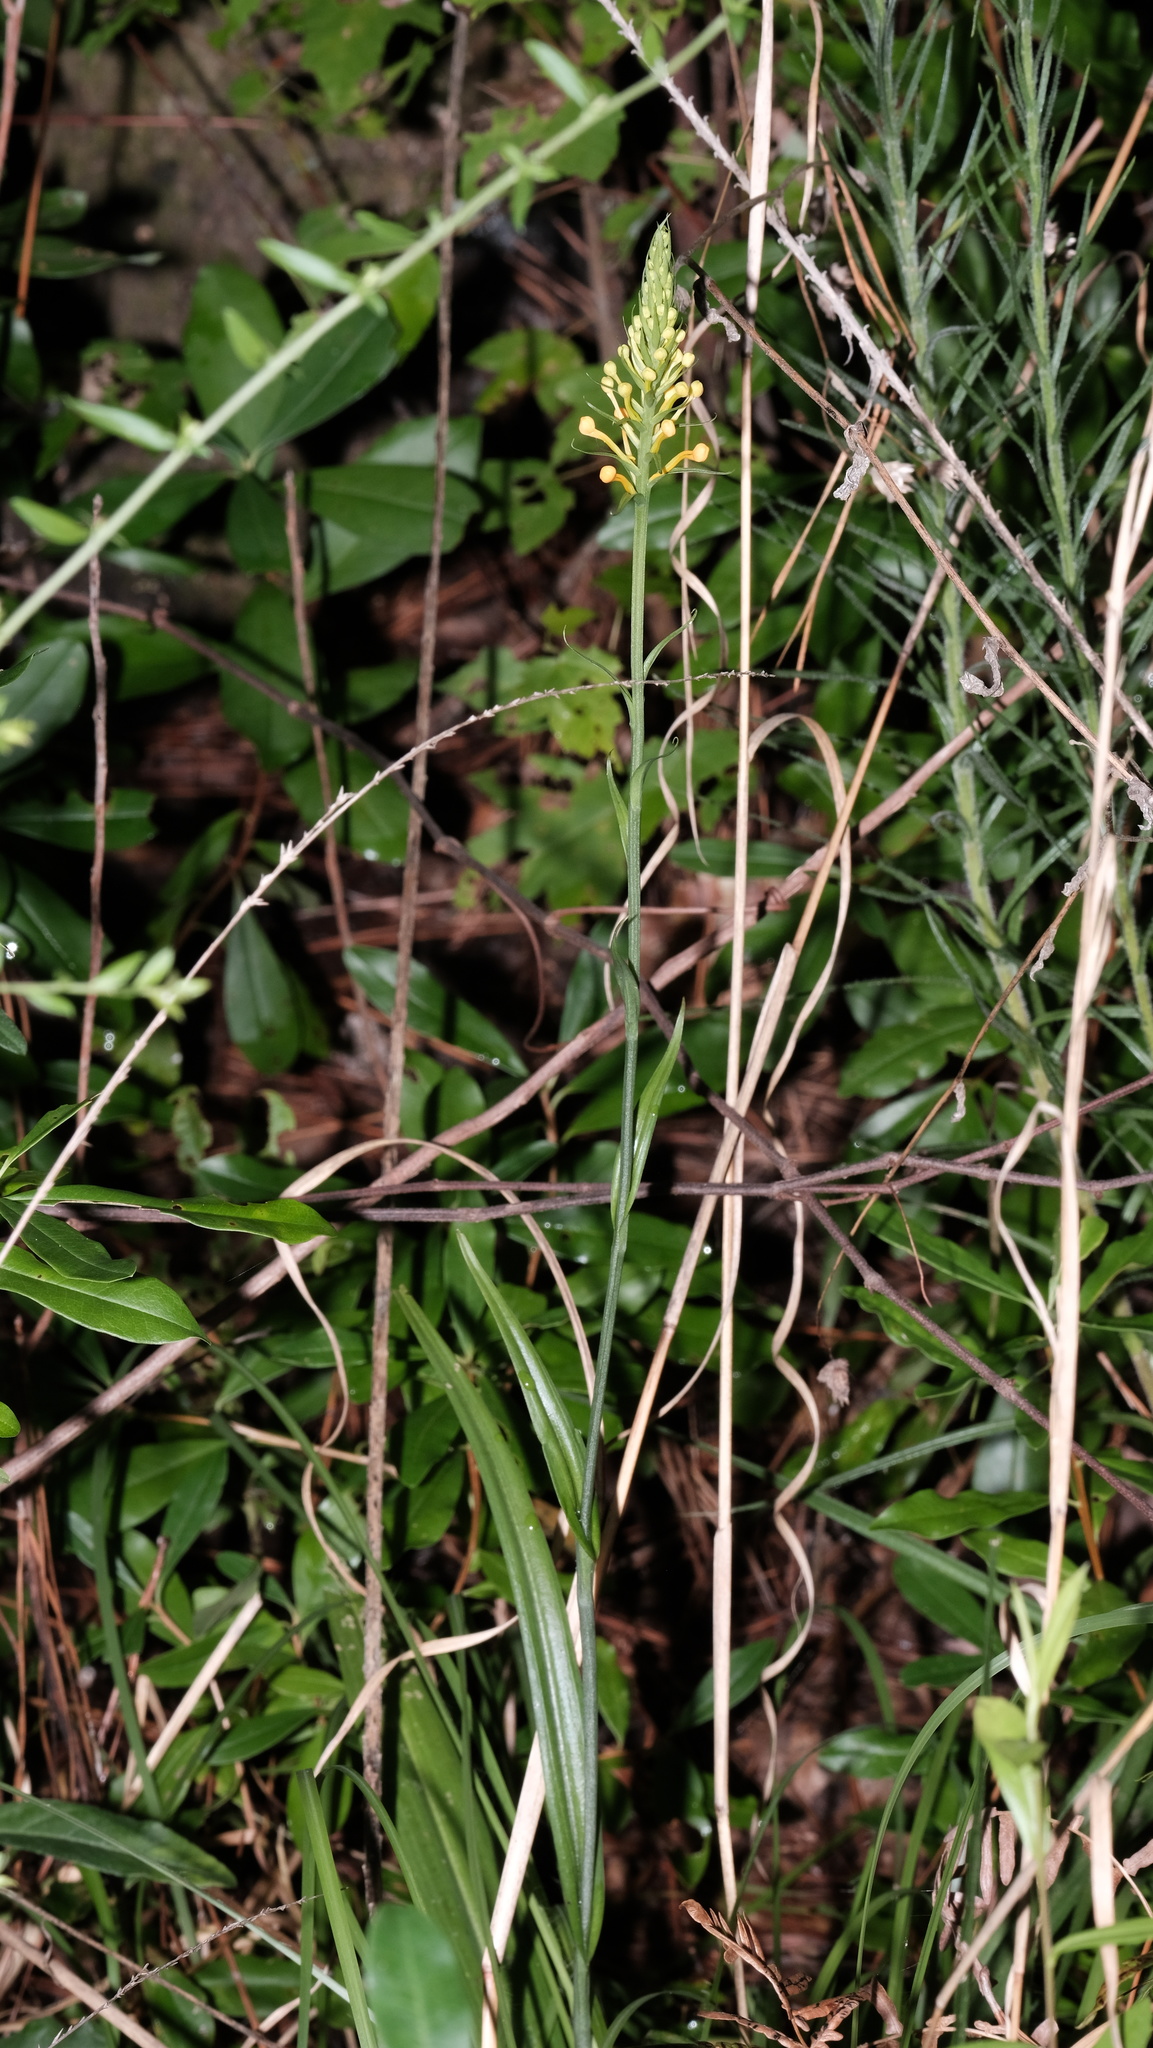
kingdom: Plantae
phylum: Tracheophyta
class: Liliopsida
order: Asparagales
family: Orchidaceae
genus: Platanthera
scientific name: Platanthera chapmanii
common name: Chapman’s fringed orchid
